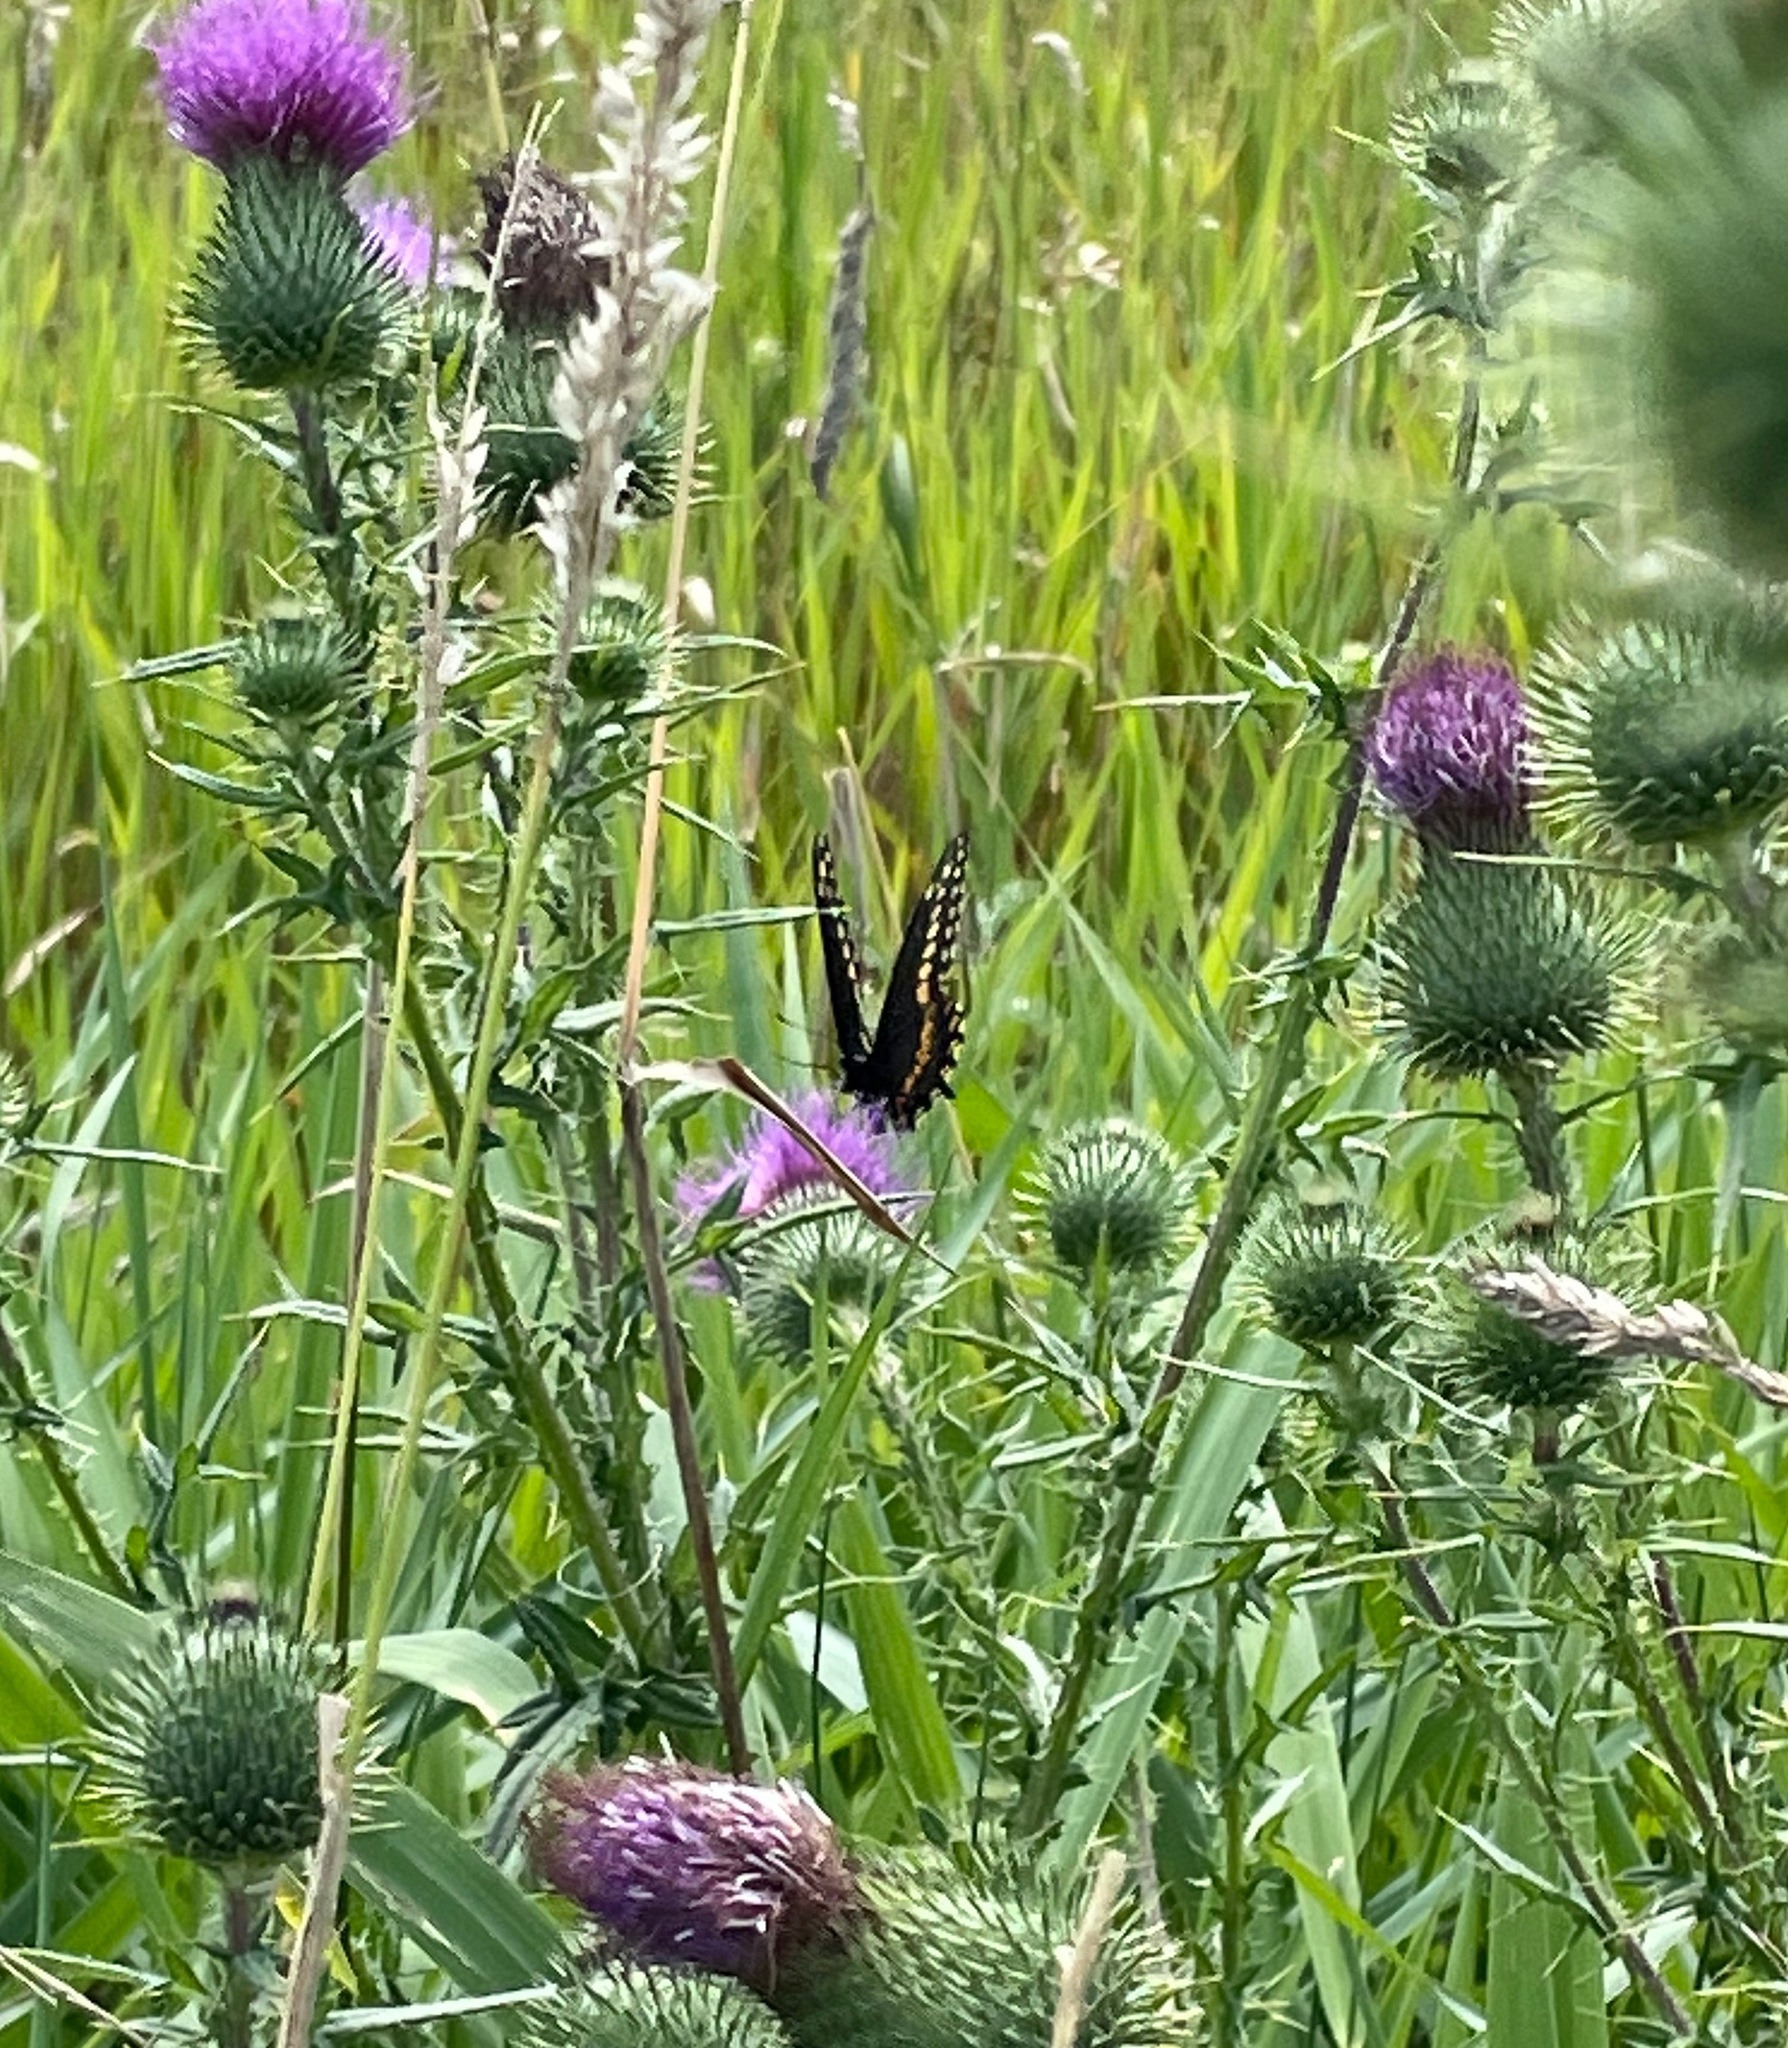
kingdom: Animalia
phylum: Arthropoda
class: Insecta
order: Lepidoptera
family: Papilionidae
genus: Papilio
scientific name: Papilio polyxenes
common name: Black swallowtail
